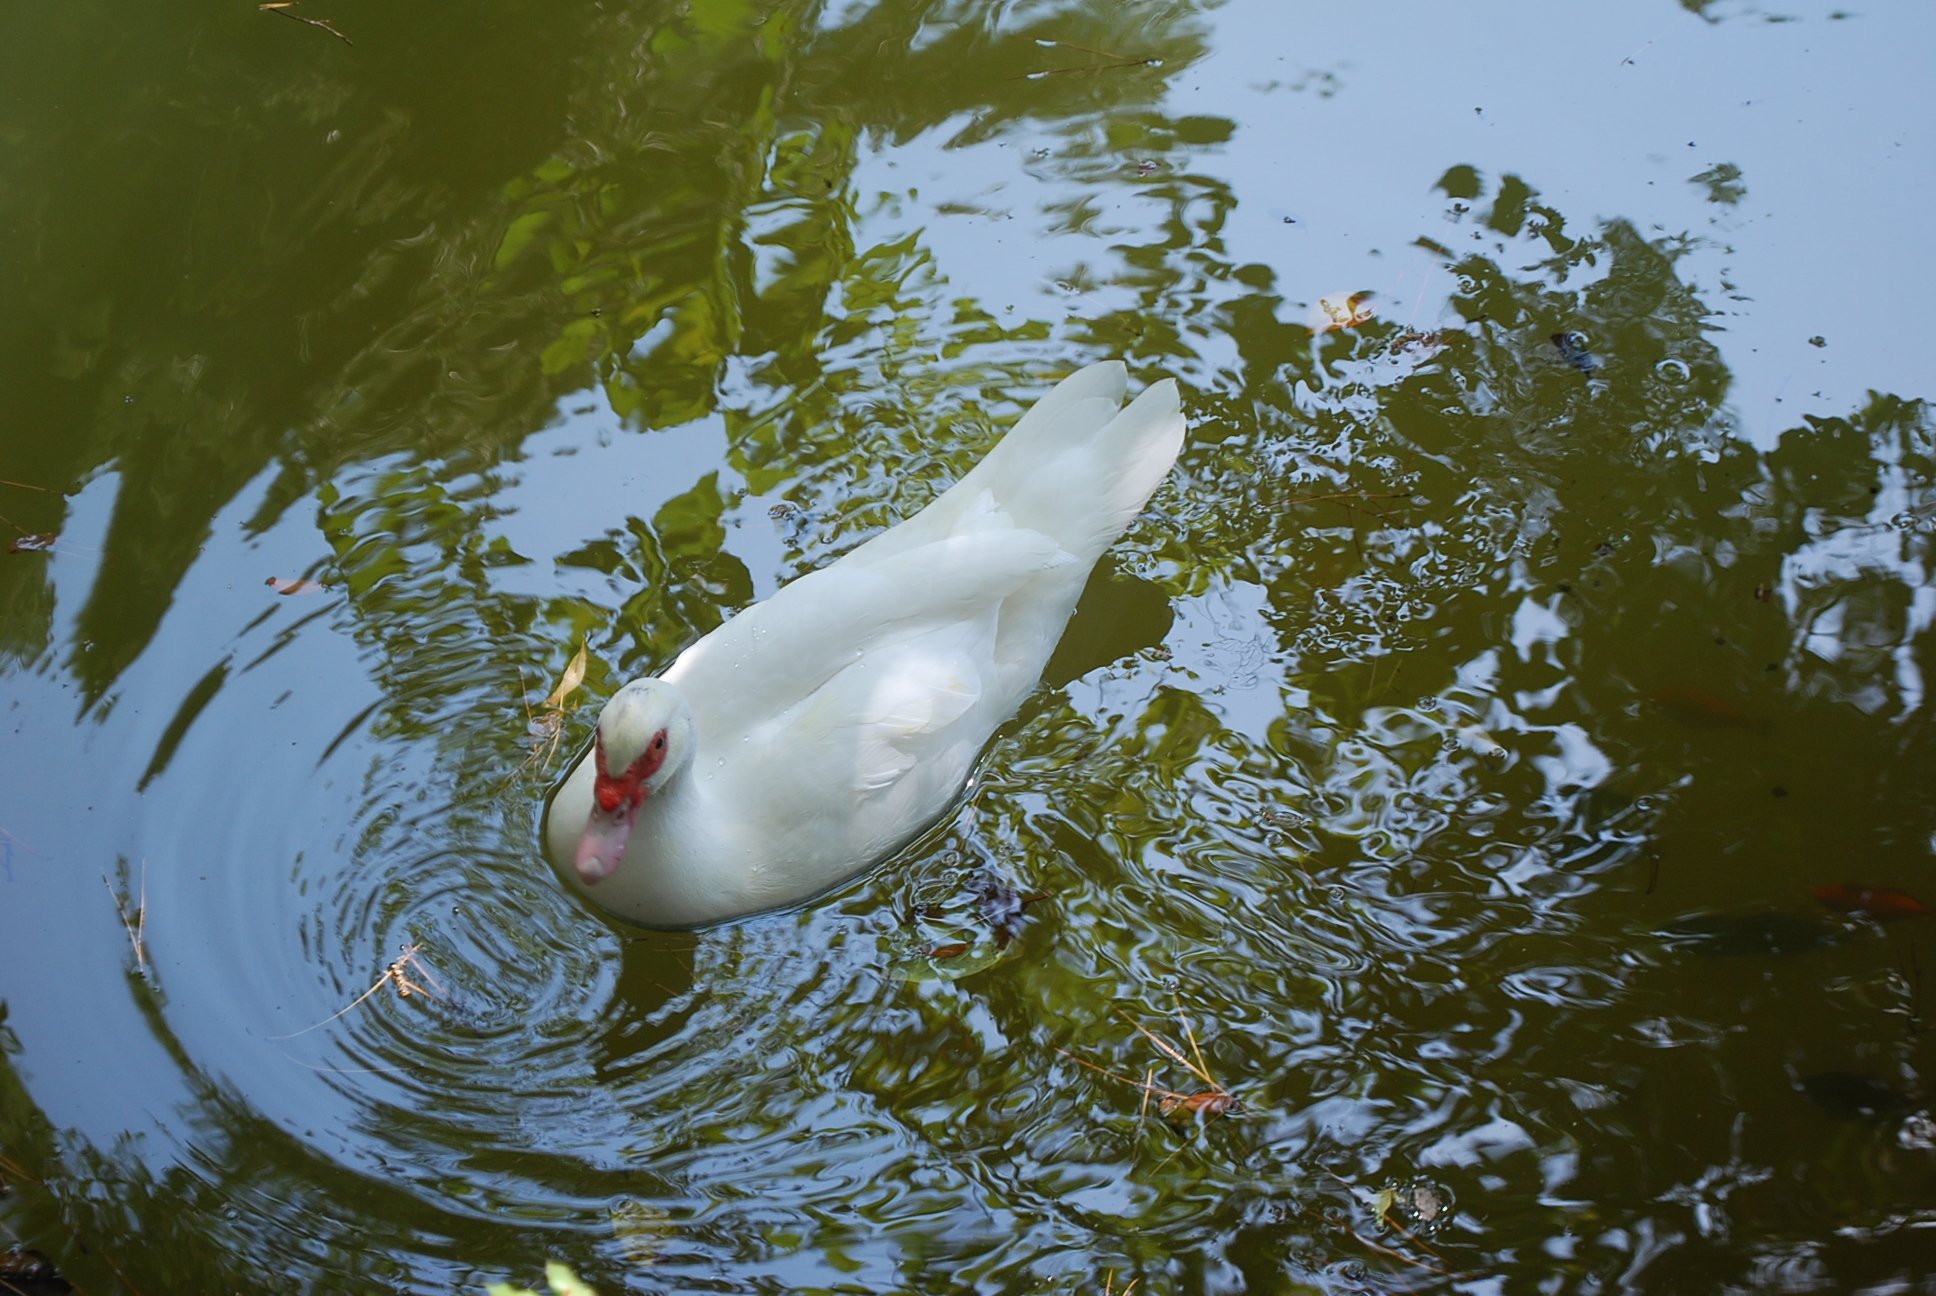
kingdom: Animalia
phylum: Chordata
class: Aves
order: Anseriformes
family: Anatidae
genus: Cairina
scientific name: Cairina moschata
